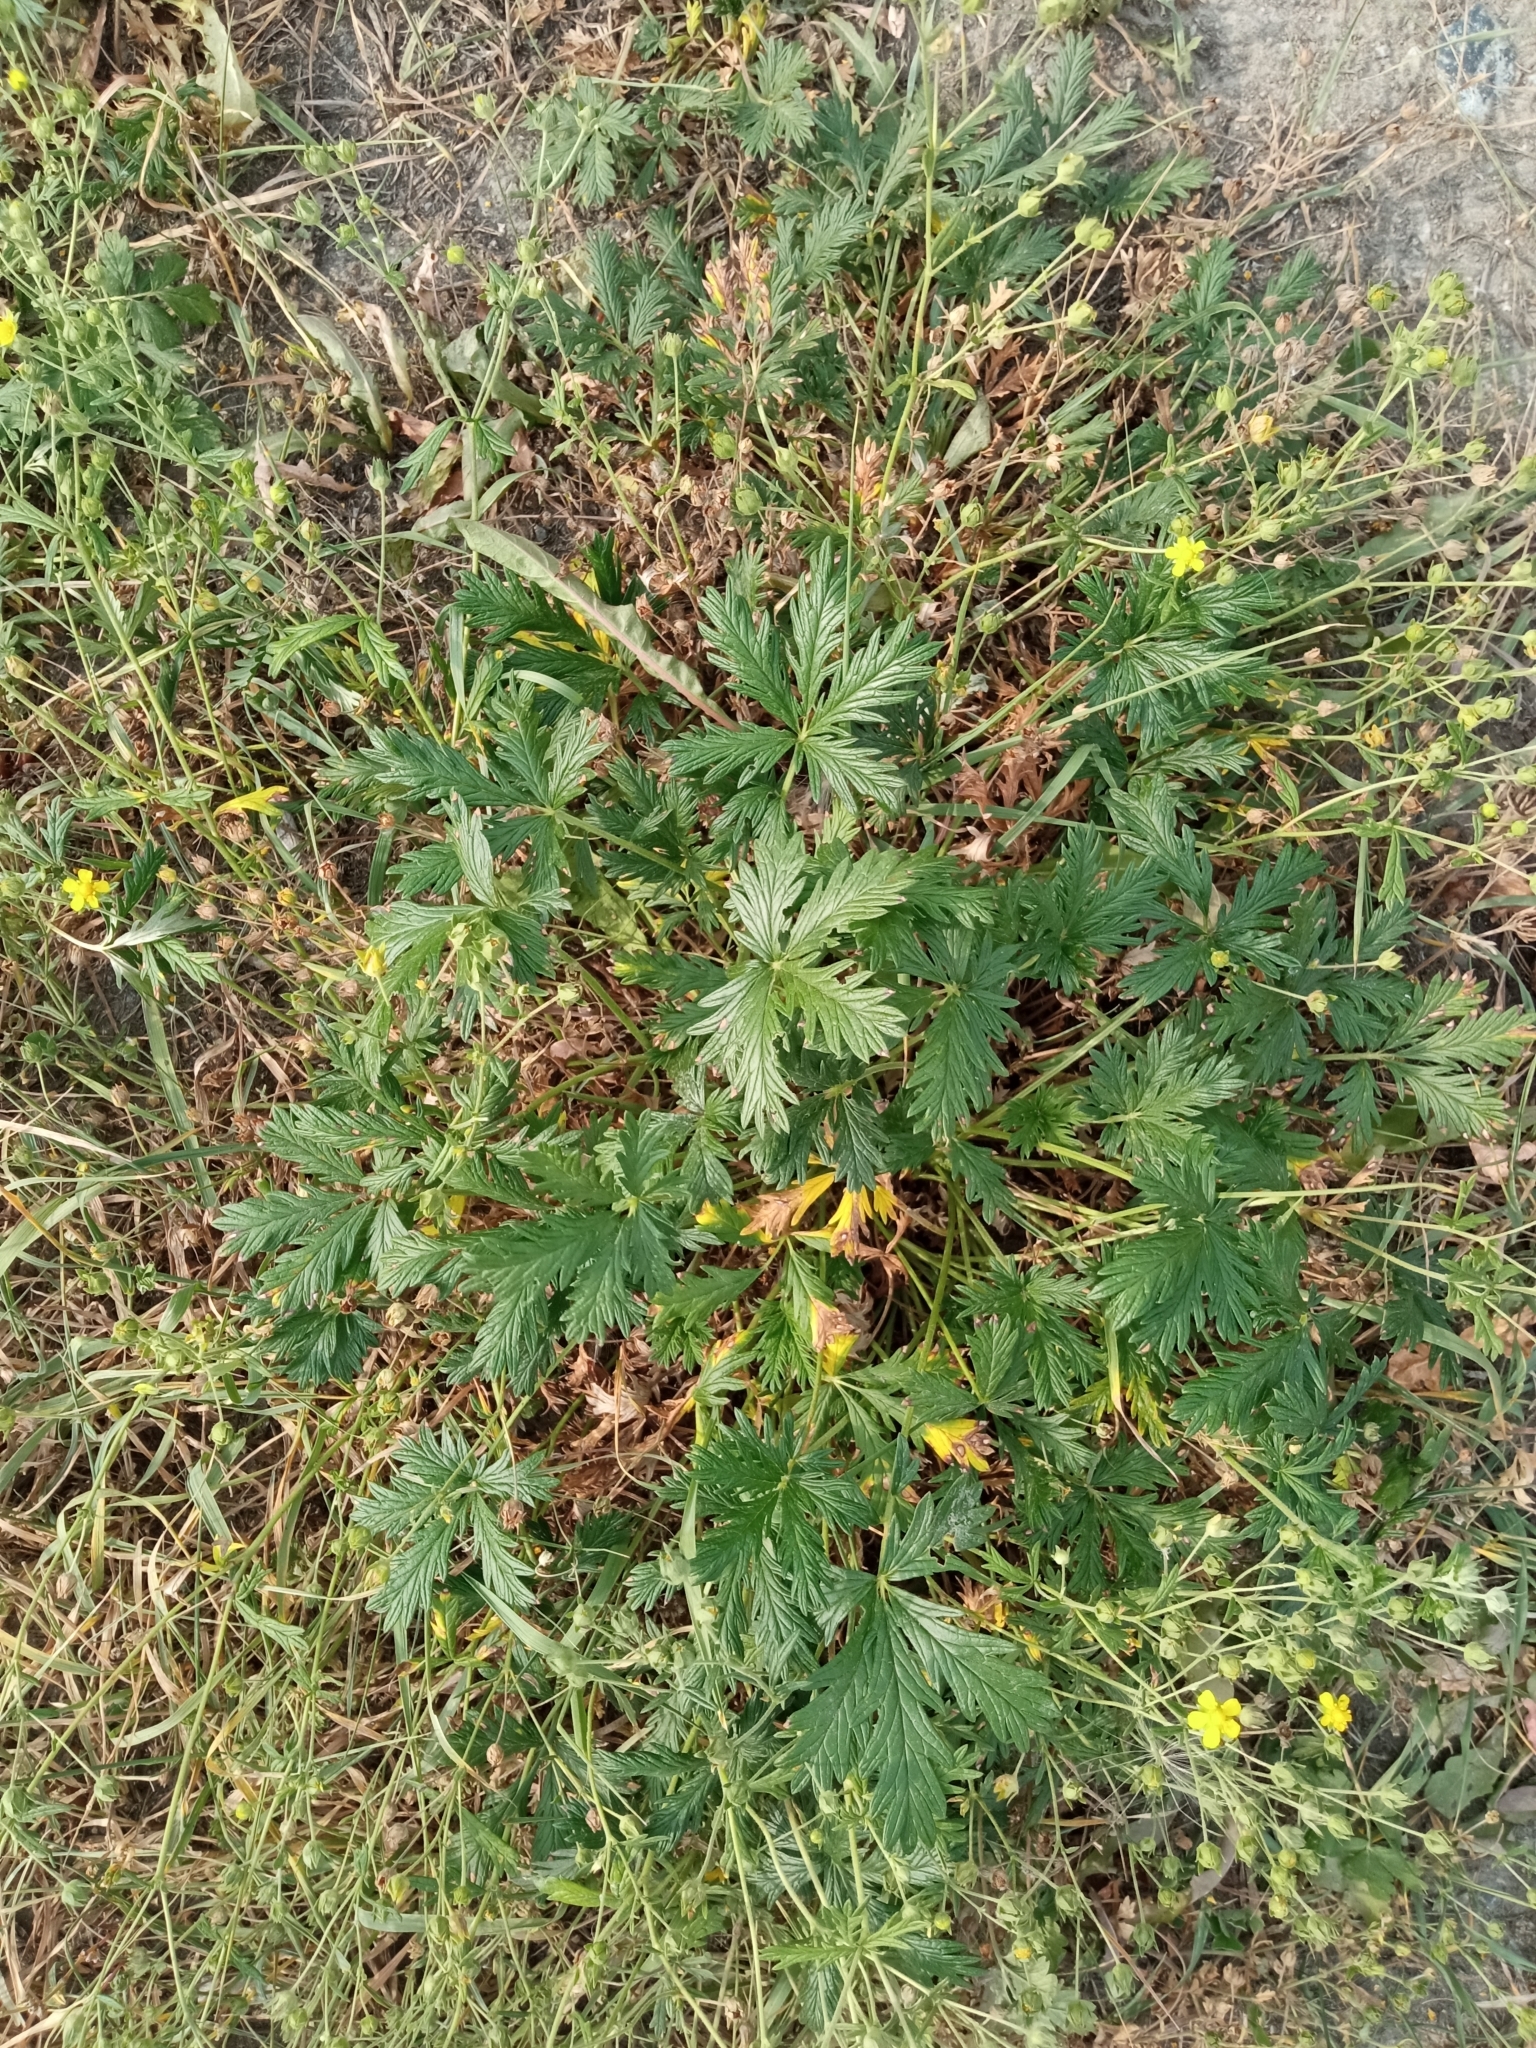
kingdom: Plantae
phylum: Tracheophyta
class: Magnoliopsida
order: Rosales
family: Rosaceae
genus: Potentilla
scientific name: Potentilla argentea
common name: Hoary cinquefoil
